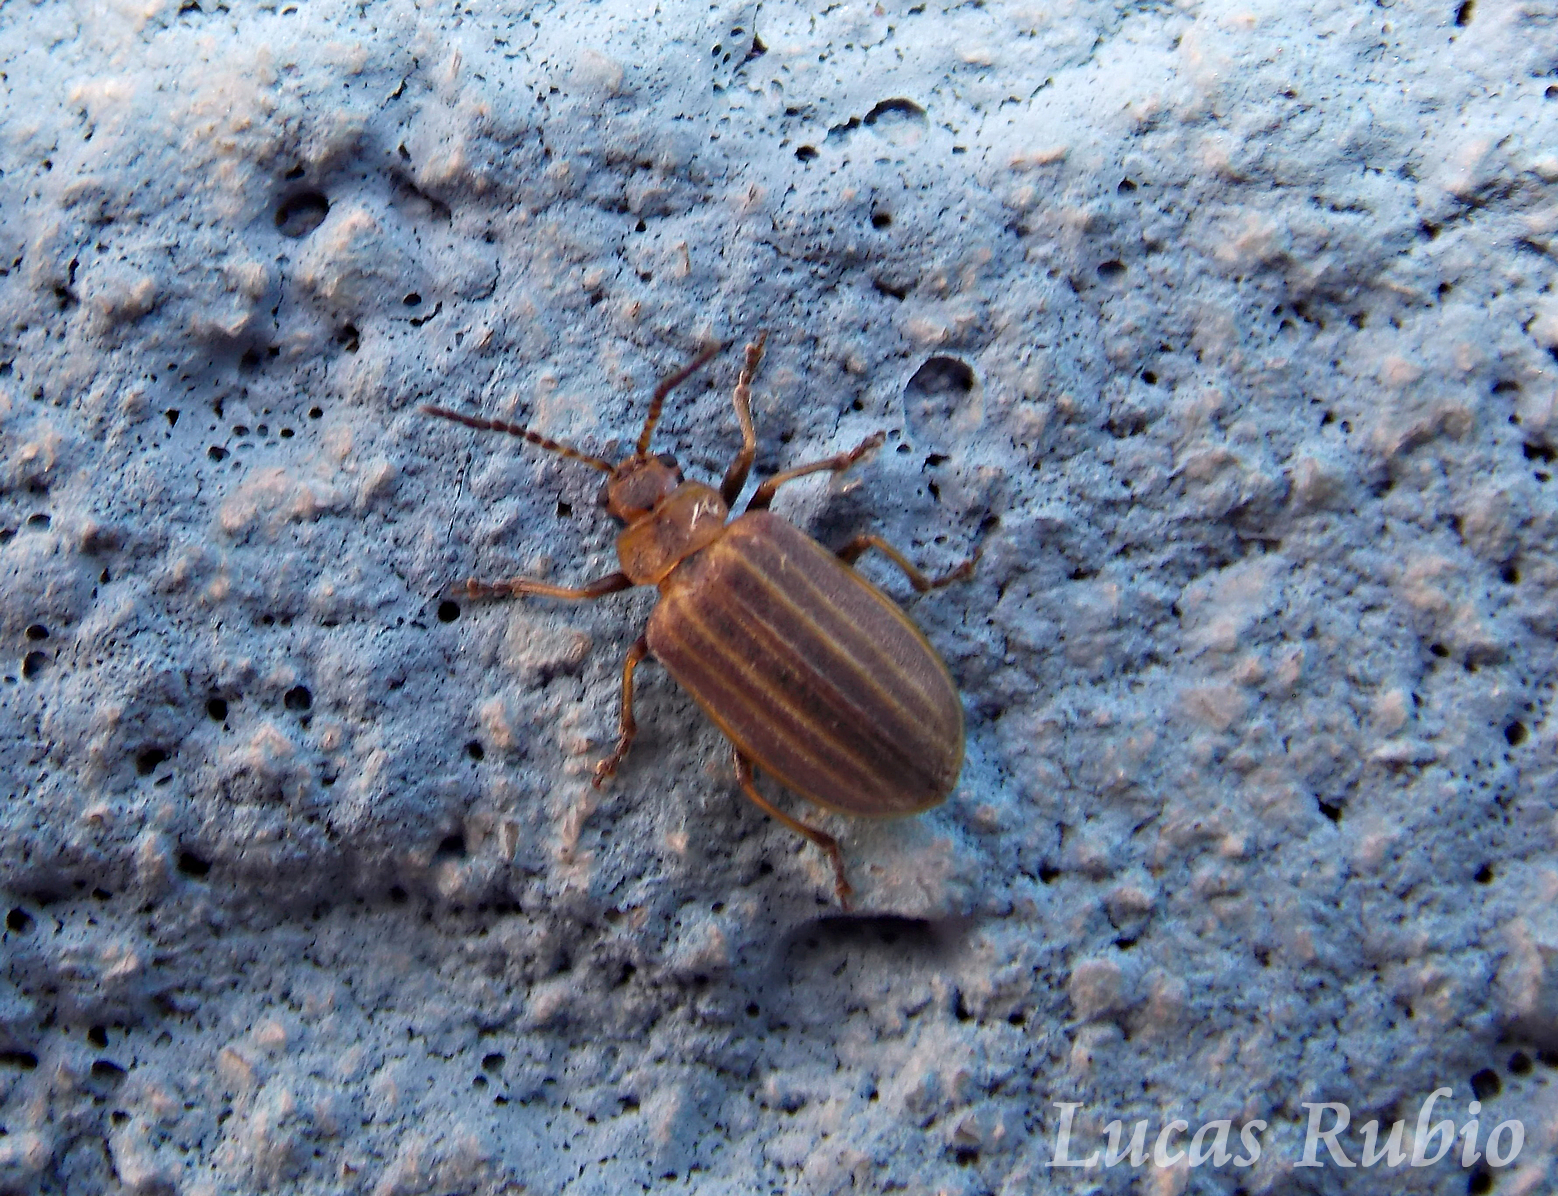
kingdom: Animalia
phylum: Arthropoda
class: Insecta
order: Coleoptera
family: Chrysomelidae
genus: Neolochmaea
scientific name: Neolochmaea
